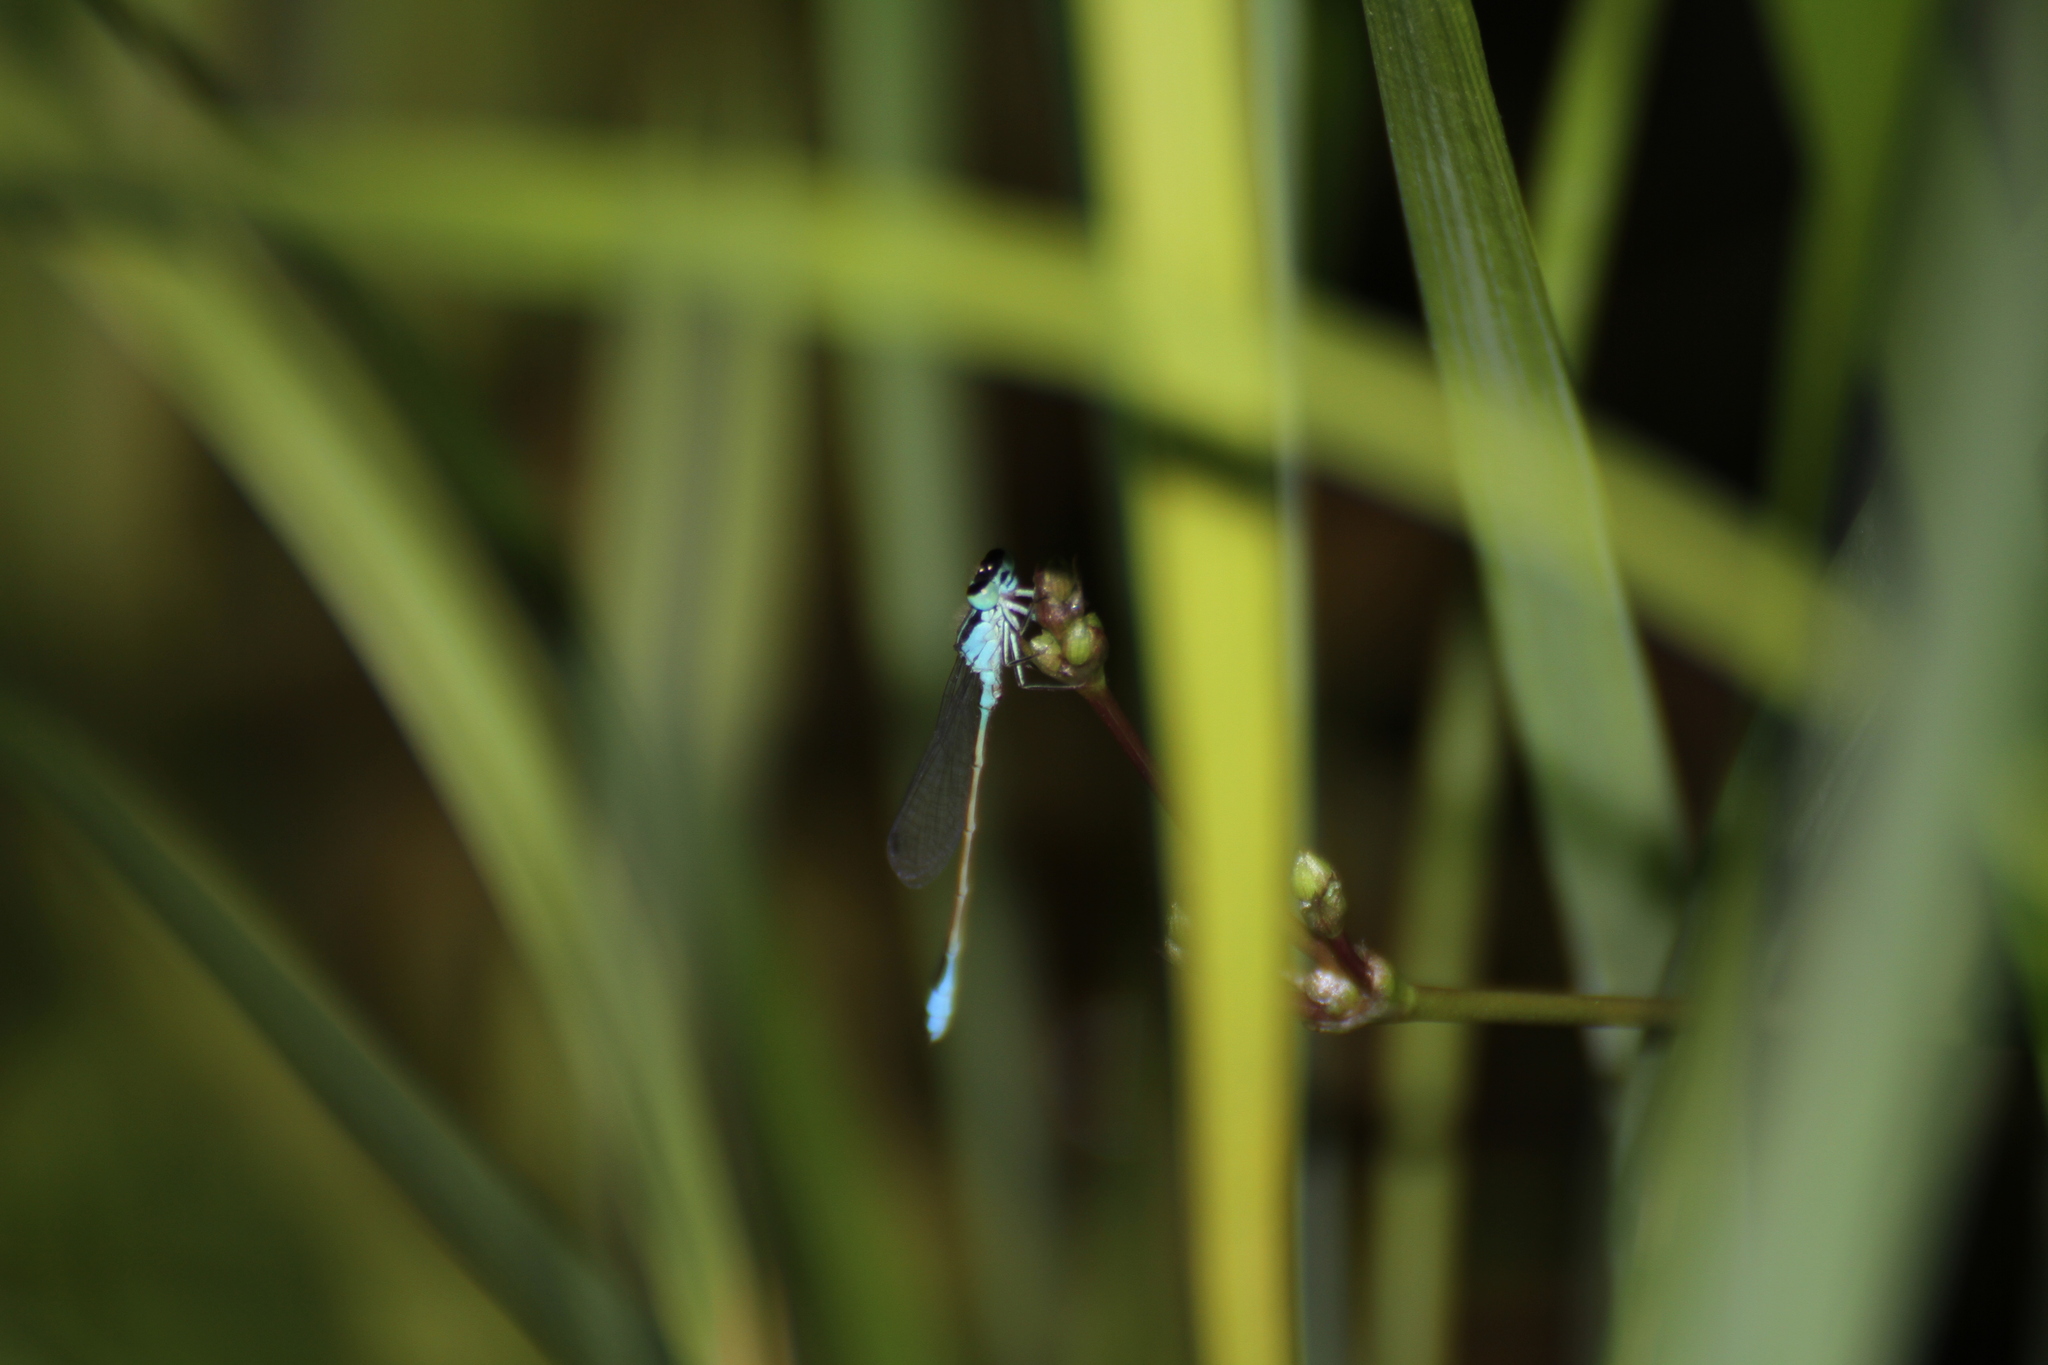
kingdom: Animalia
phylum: Arthropoda
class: Insecta
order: Odonata
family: Coenagrionidae
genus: Ischnura
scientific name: Ischnura elegans
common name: Blue-tailed damselfly
